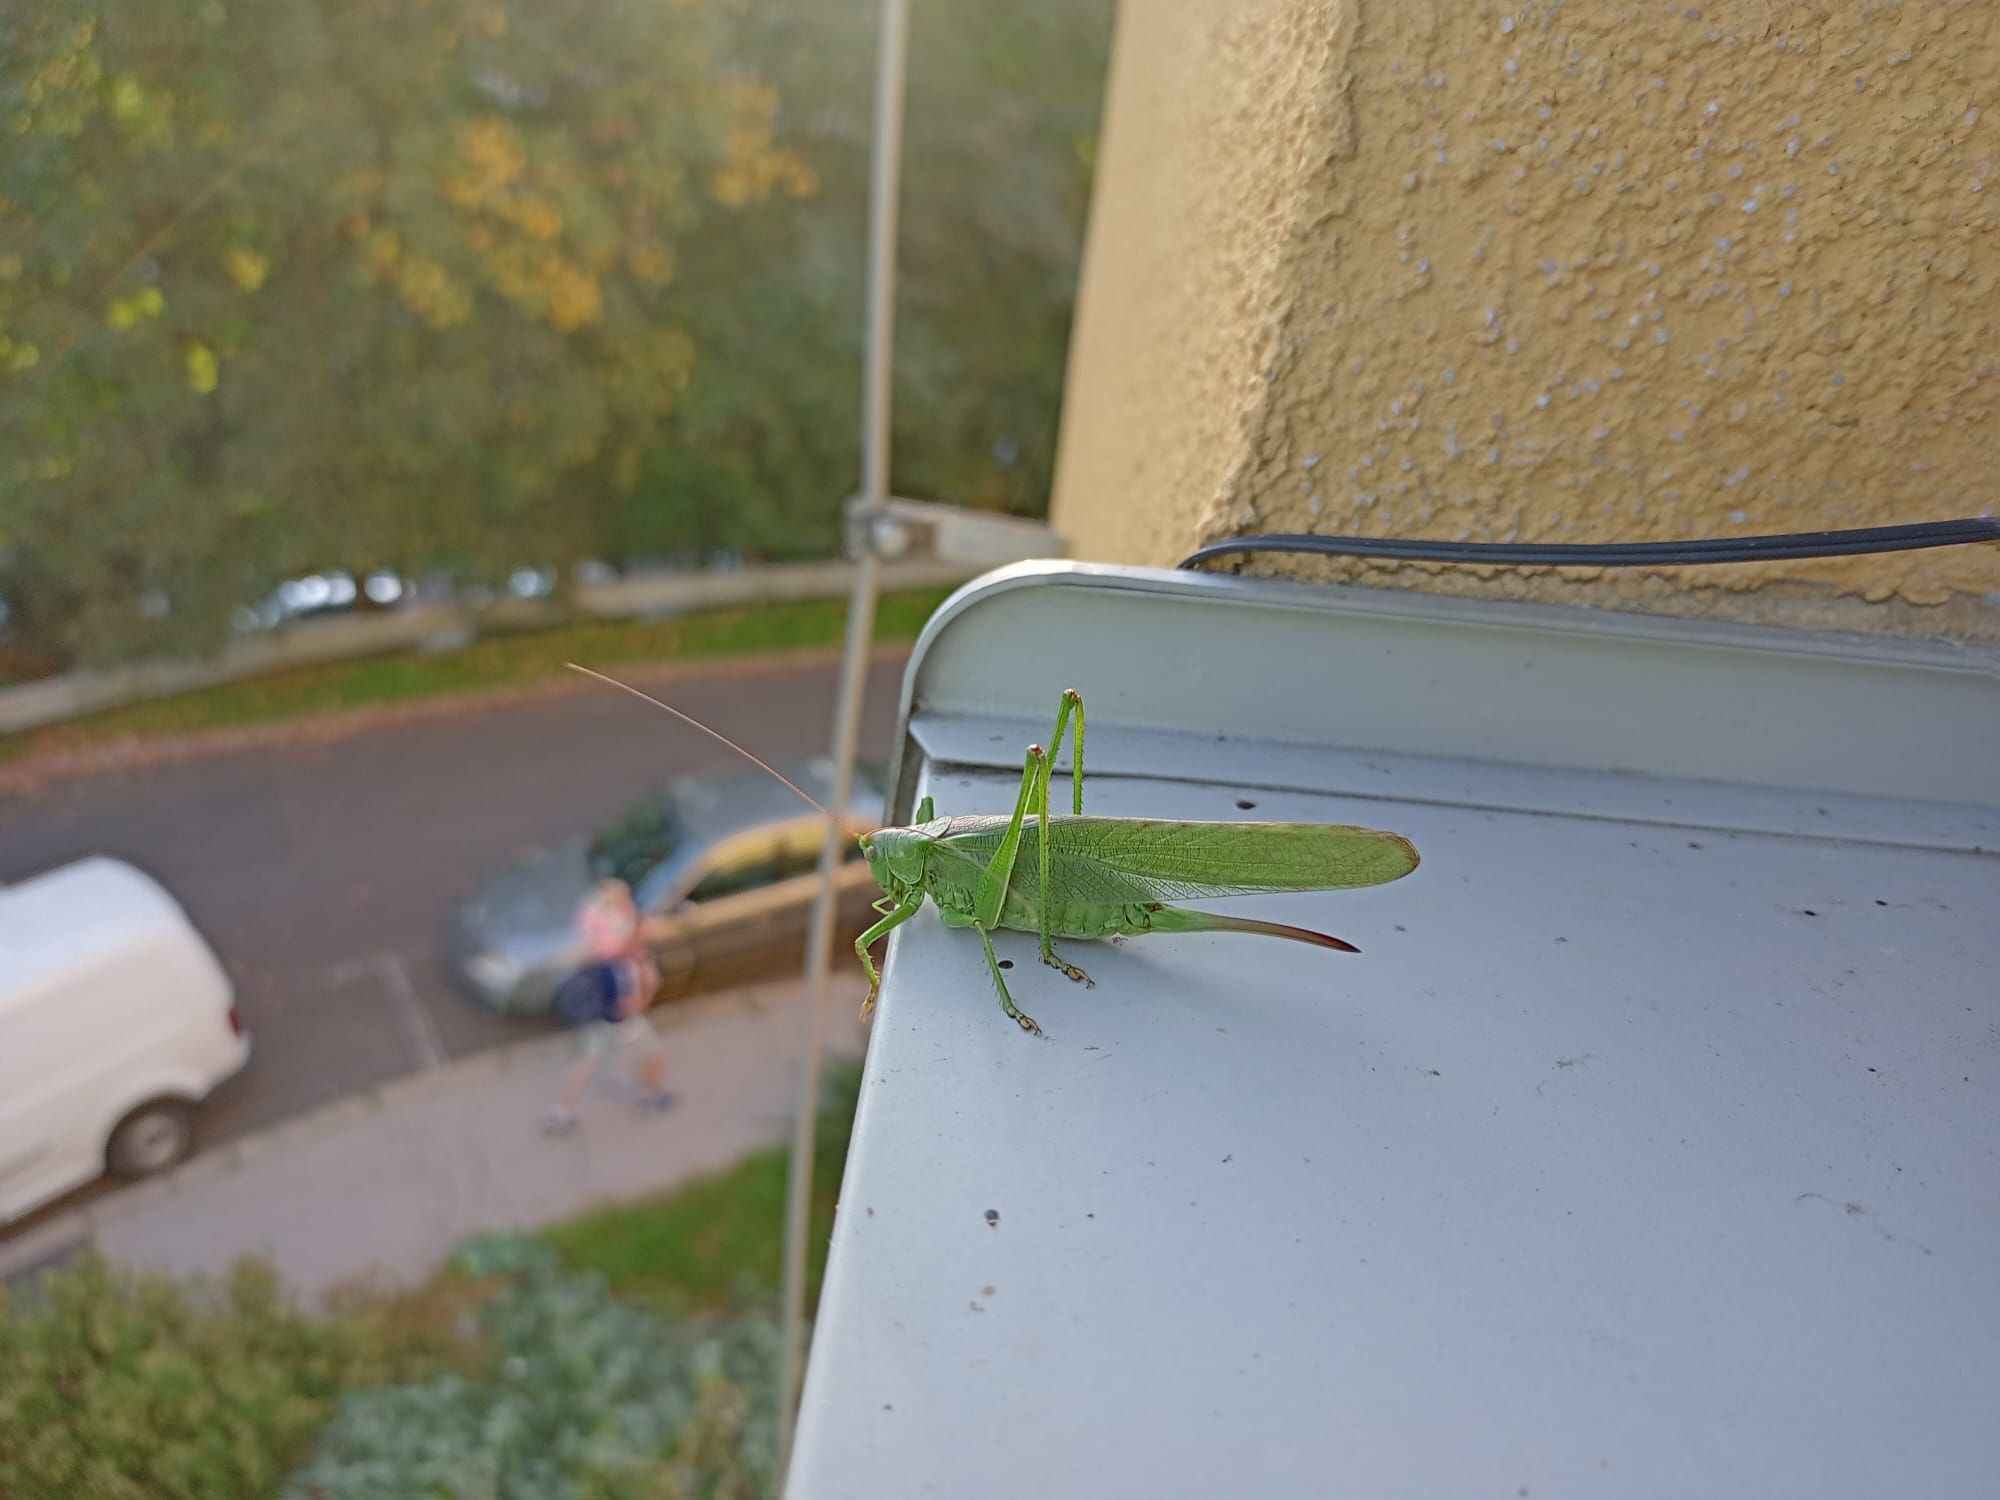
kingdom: Animalia
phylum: Arthropoda
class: Insecta
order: Orthoptera
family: Tettigoniidae
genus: Tettigonia
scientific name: Tettigonia viridissima
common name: Great green bush-cricket
